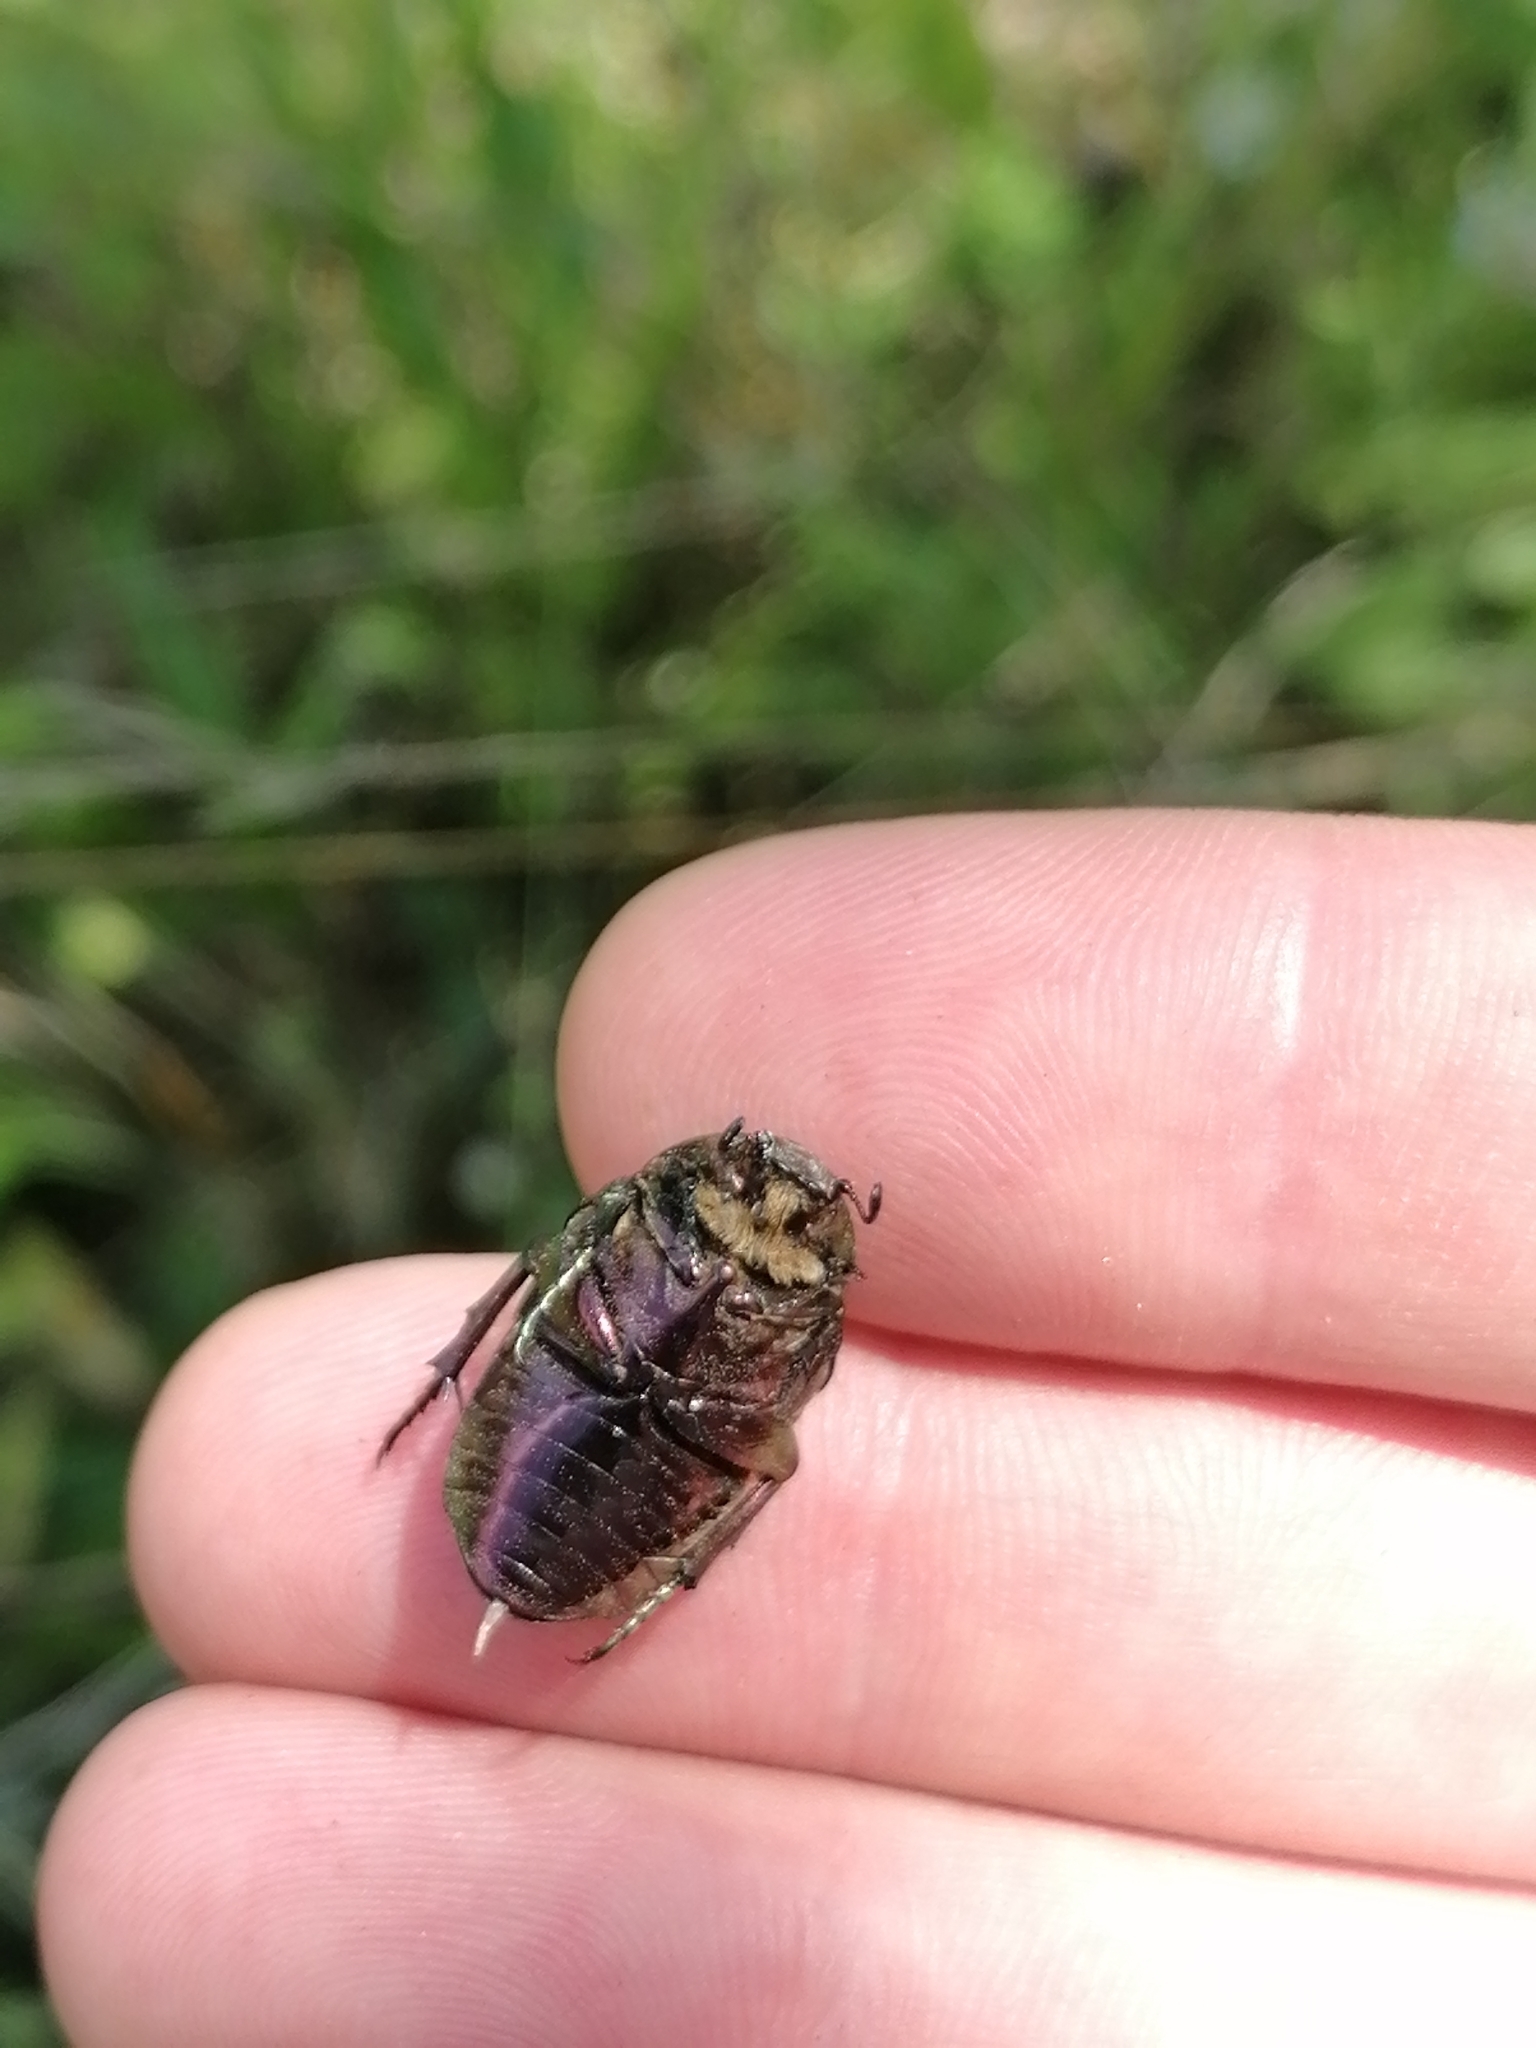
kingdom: Animalia
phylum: Arthropoda
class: Insecta
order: Coleoptera
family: Scarabaeidae
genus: Cetonia
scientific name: Cetonia aurata
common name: Rose chafer
